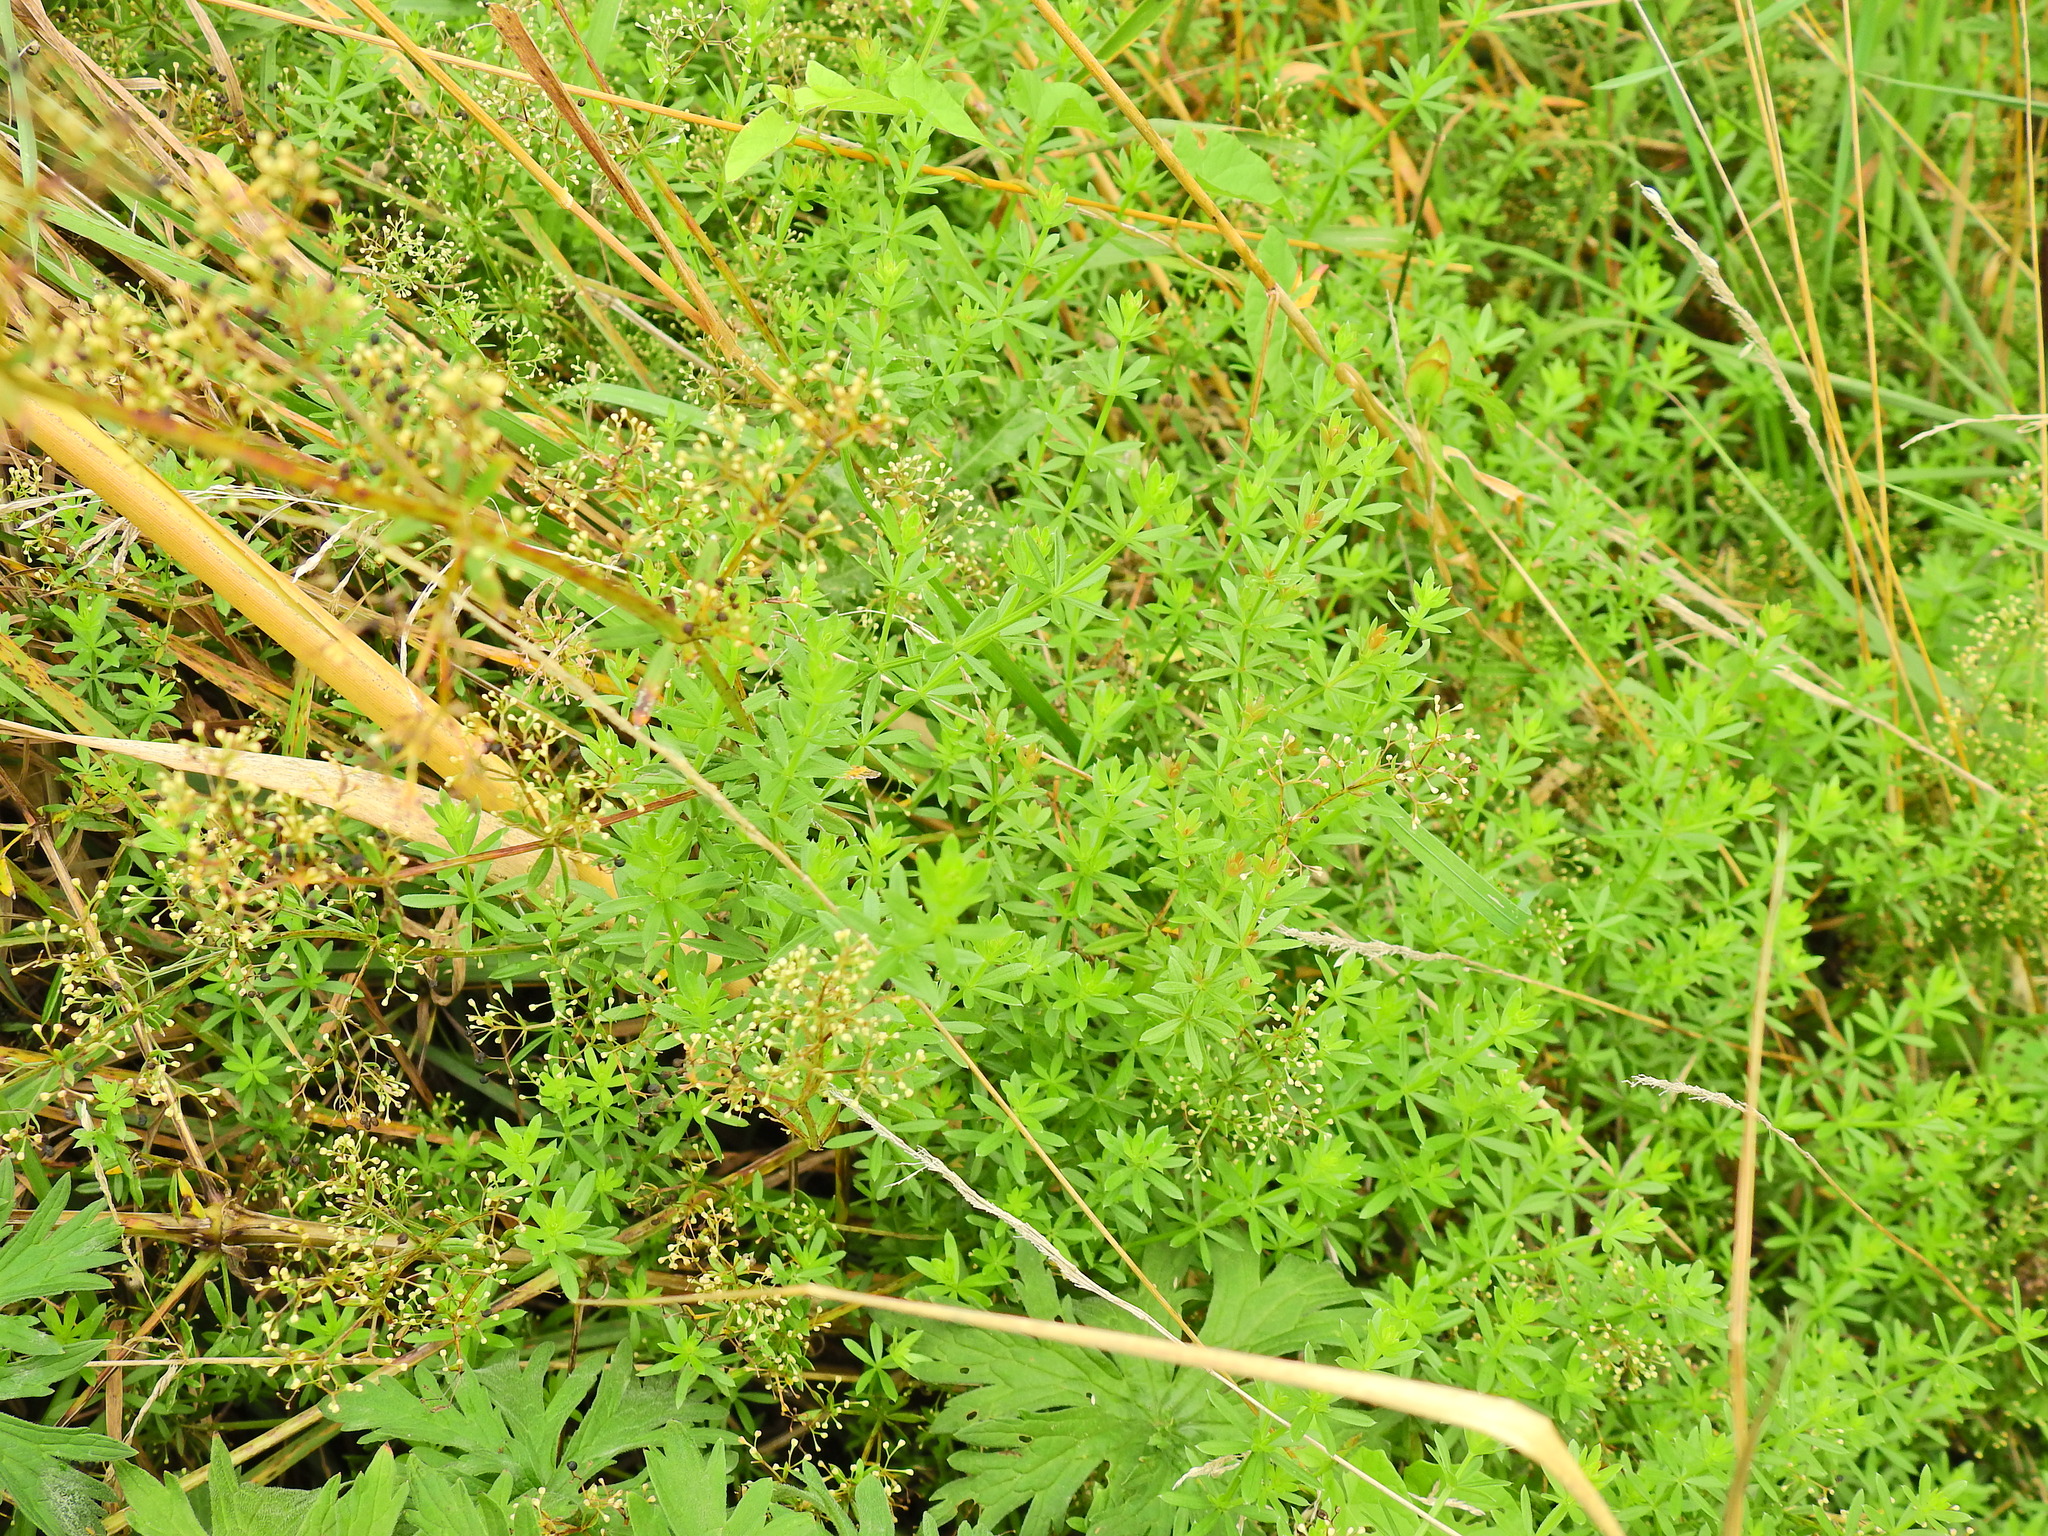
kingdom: Plantae
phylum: Tracheophyta
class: Magnoliopsida
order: Gentianales
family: Rubiaceae
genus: Galium
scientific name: Galium mollugo
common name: Hedge bedstraw
